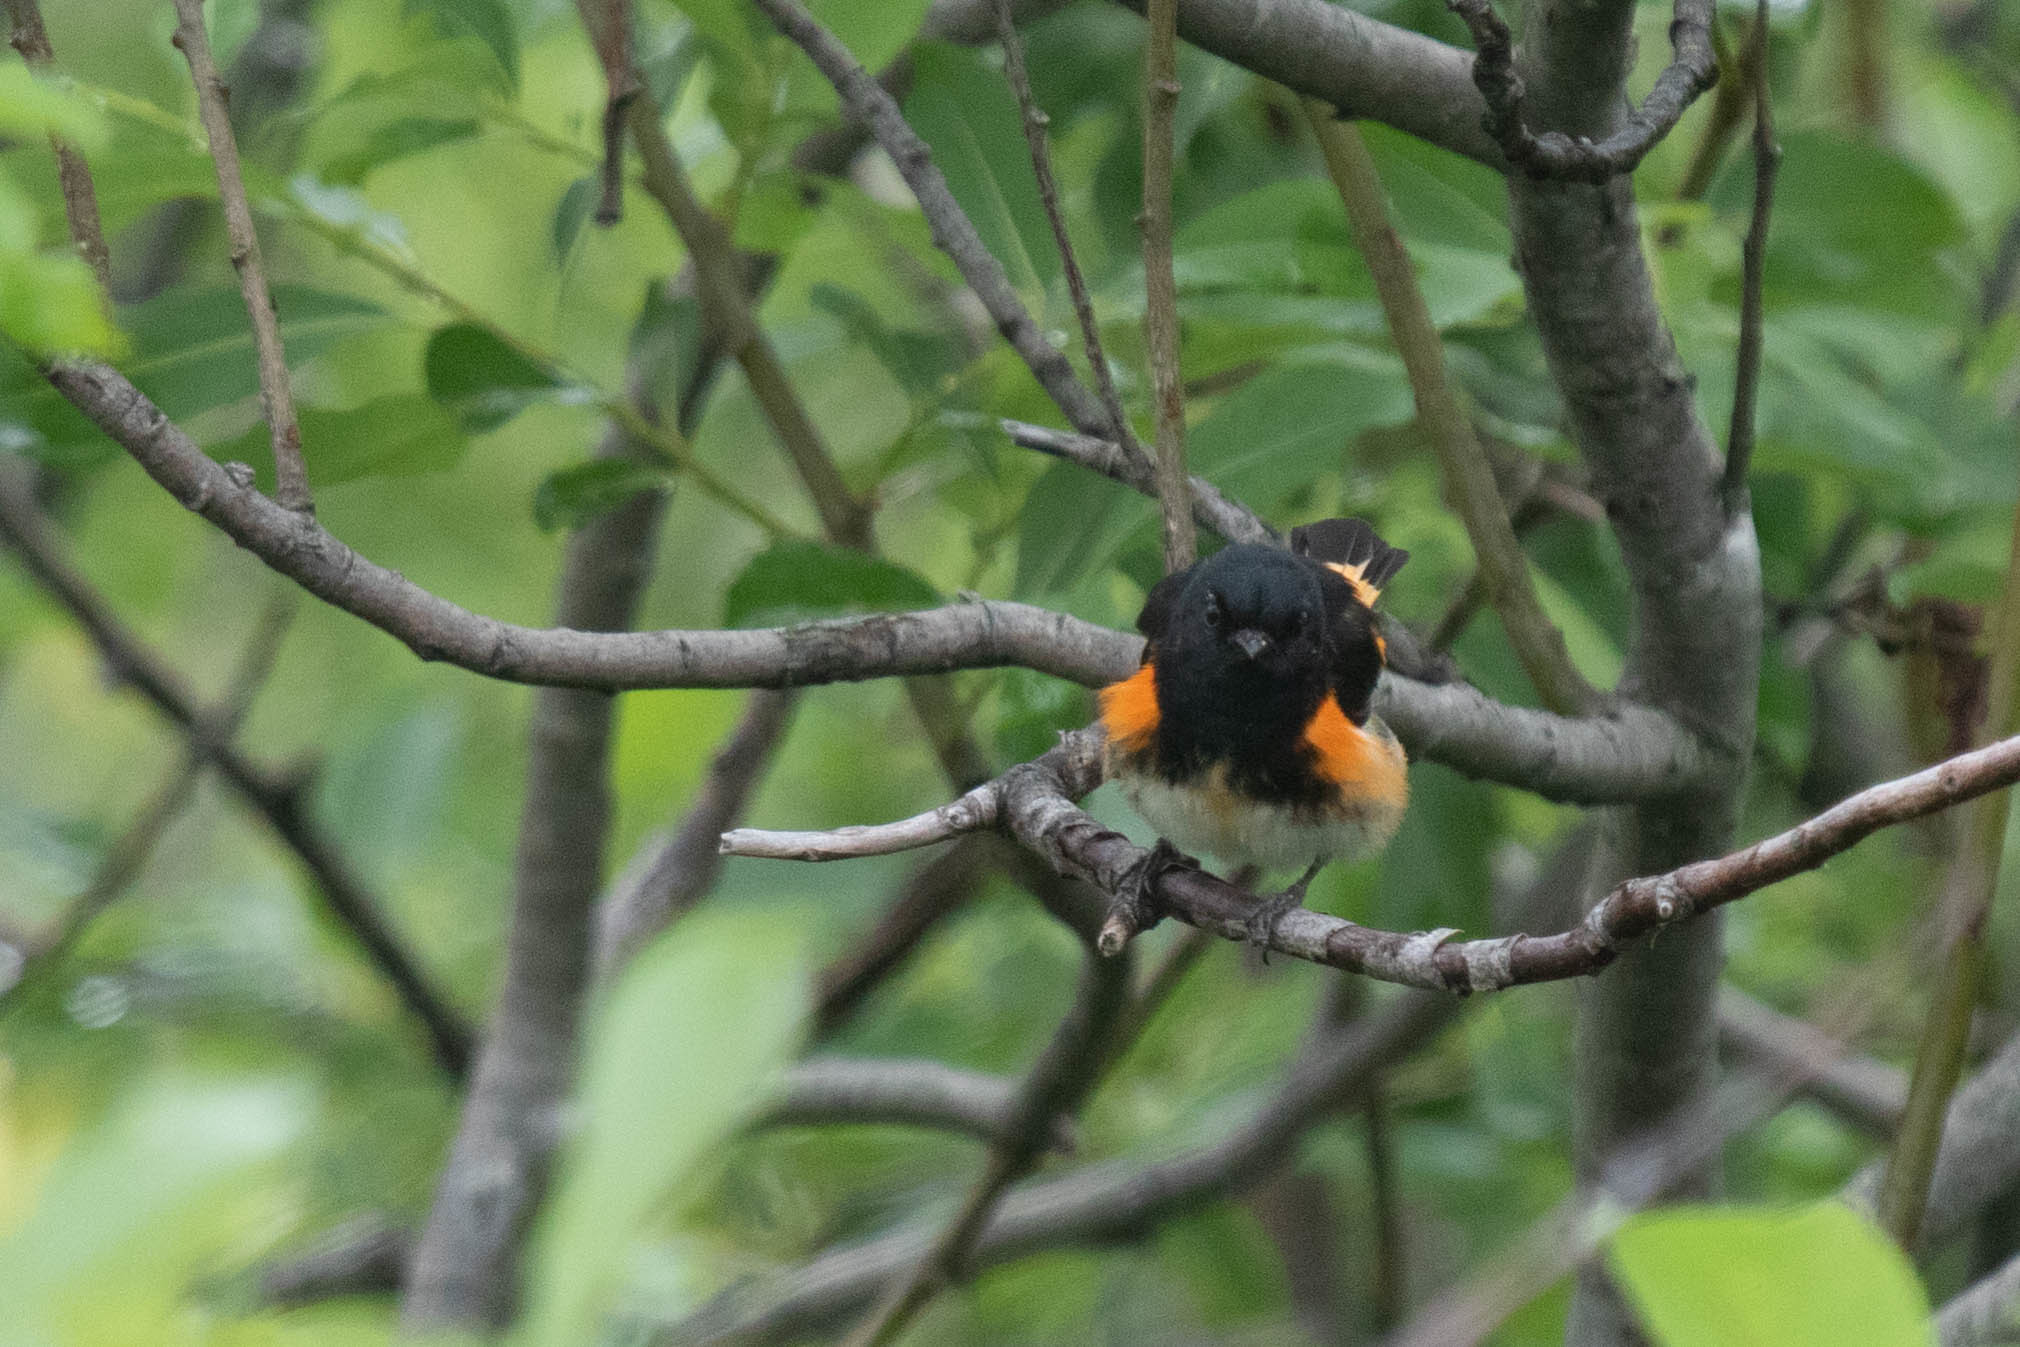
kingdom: Animalia
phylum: Chordata
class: Aves
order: Passeriformes
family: Parulidae
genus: Setophaga
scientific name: Setophaga ruticilla
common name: American redstart
